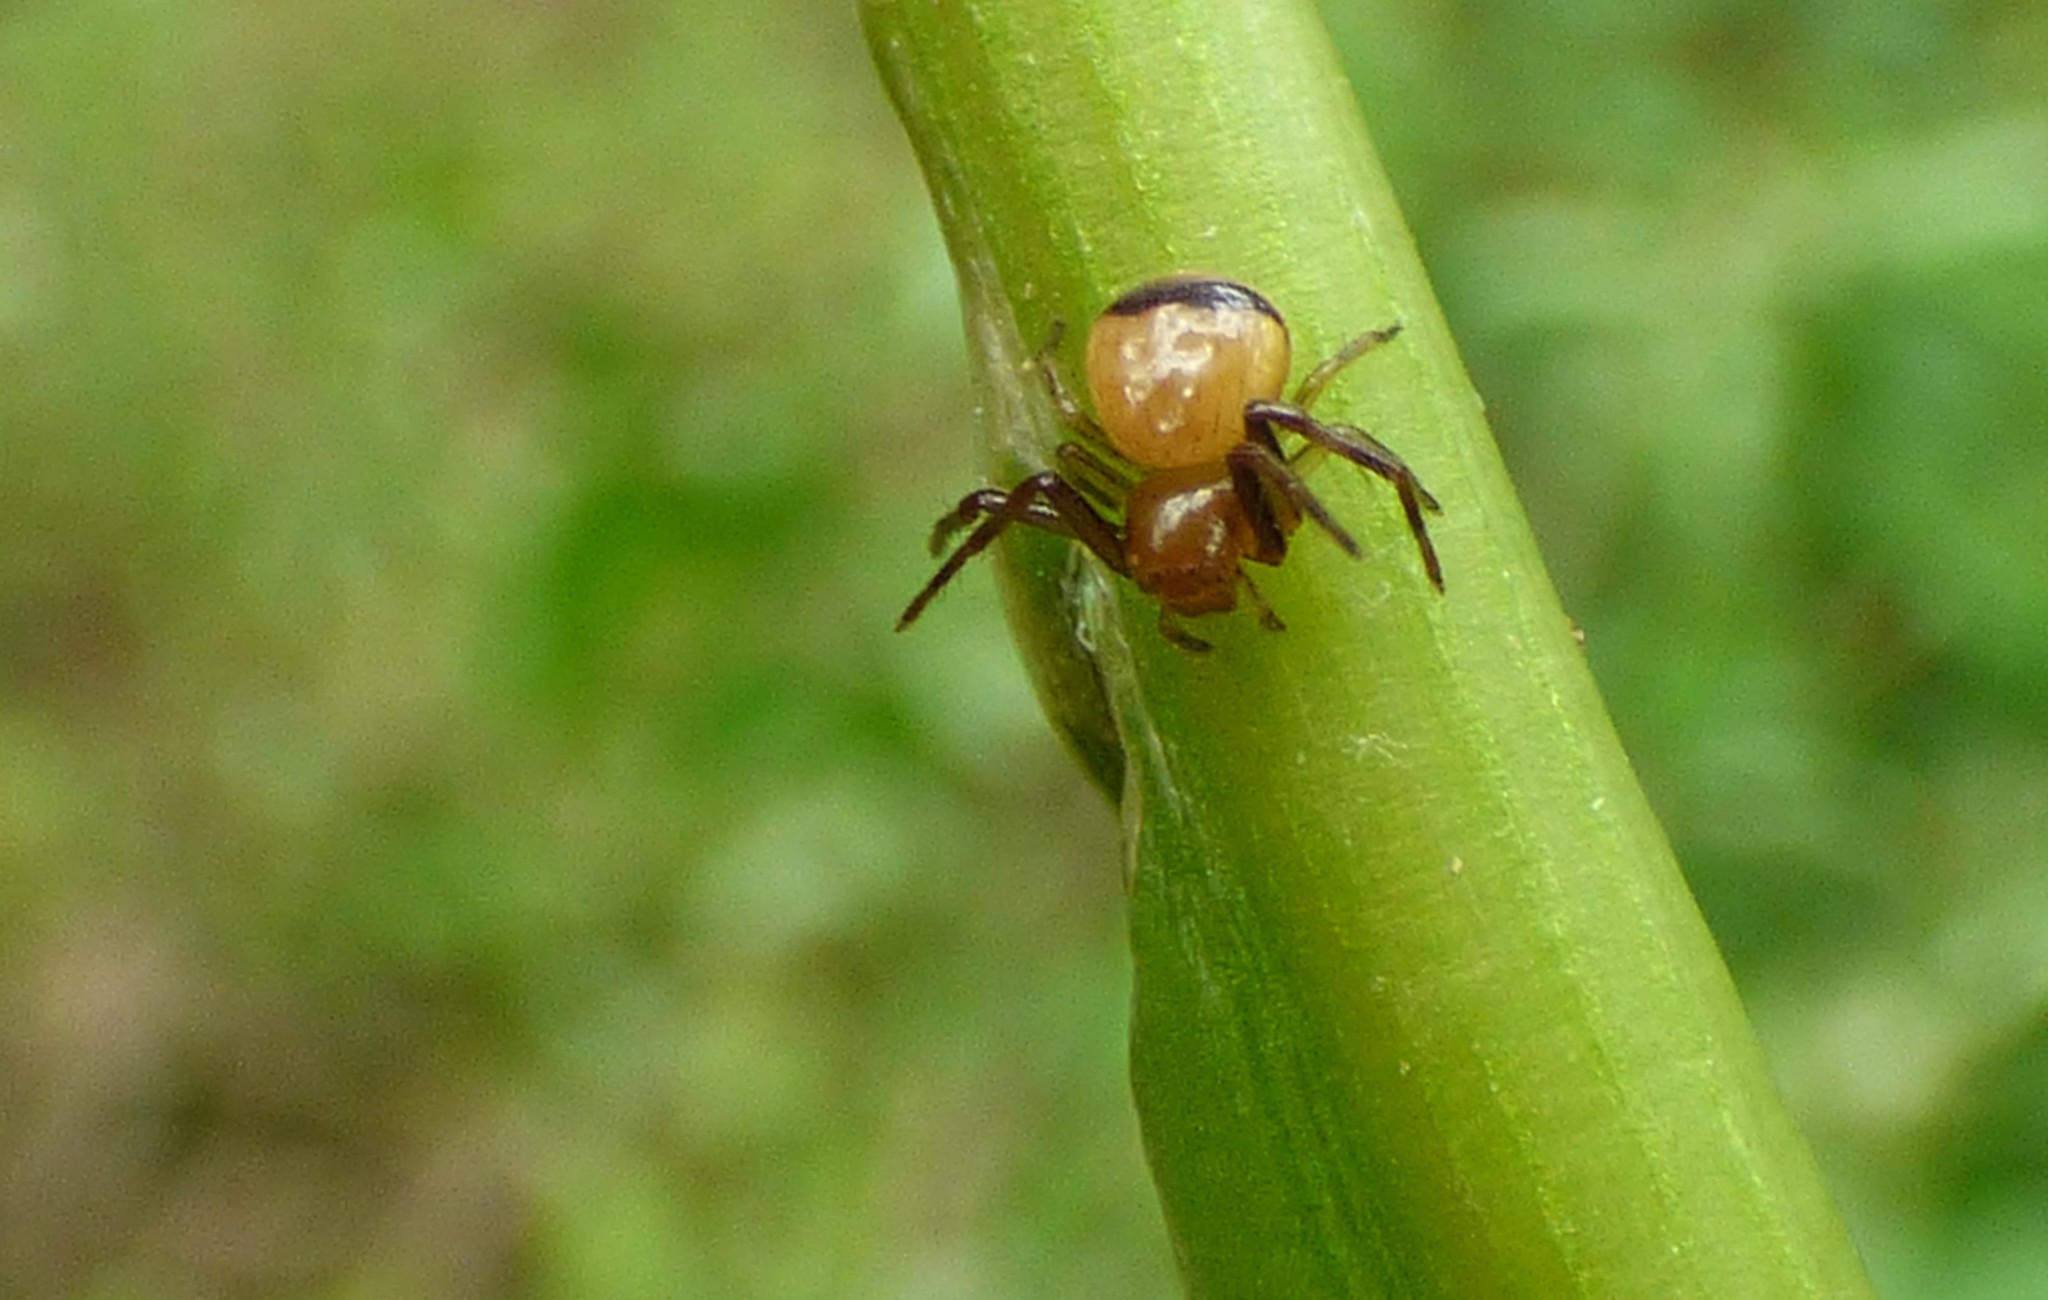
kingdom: Animalia
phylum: Arthropoda
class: Arachnida
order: Araneae
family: Thomisidae
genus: Synema
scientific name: Synema parvulum
